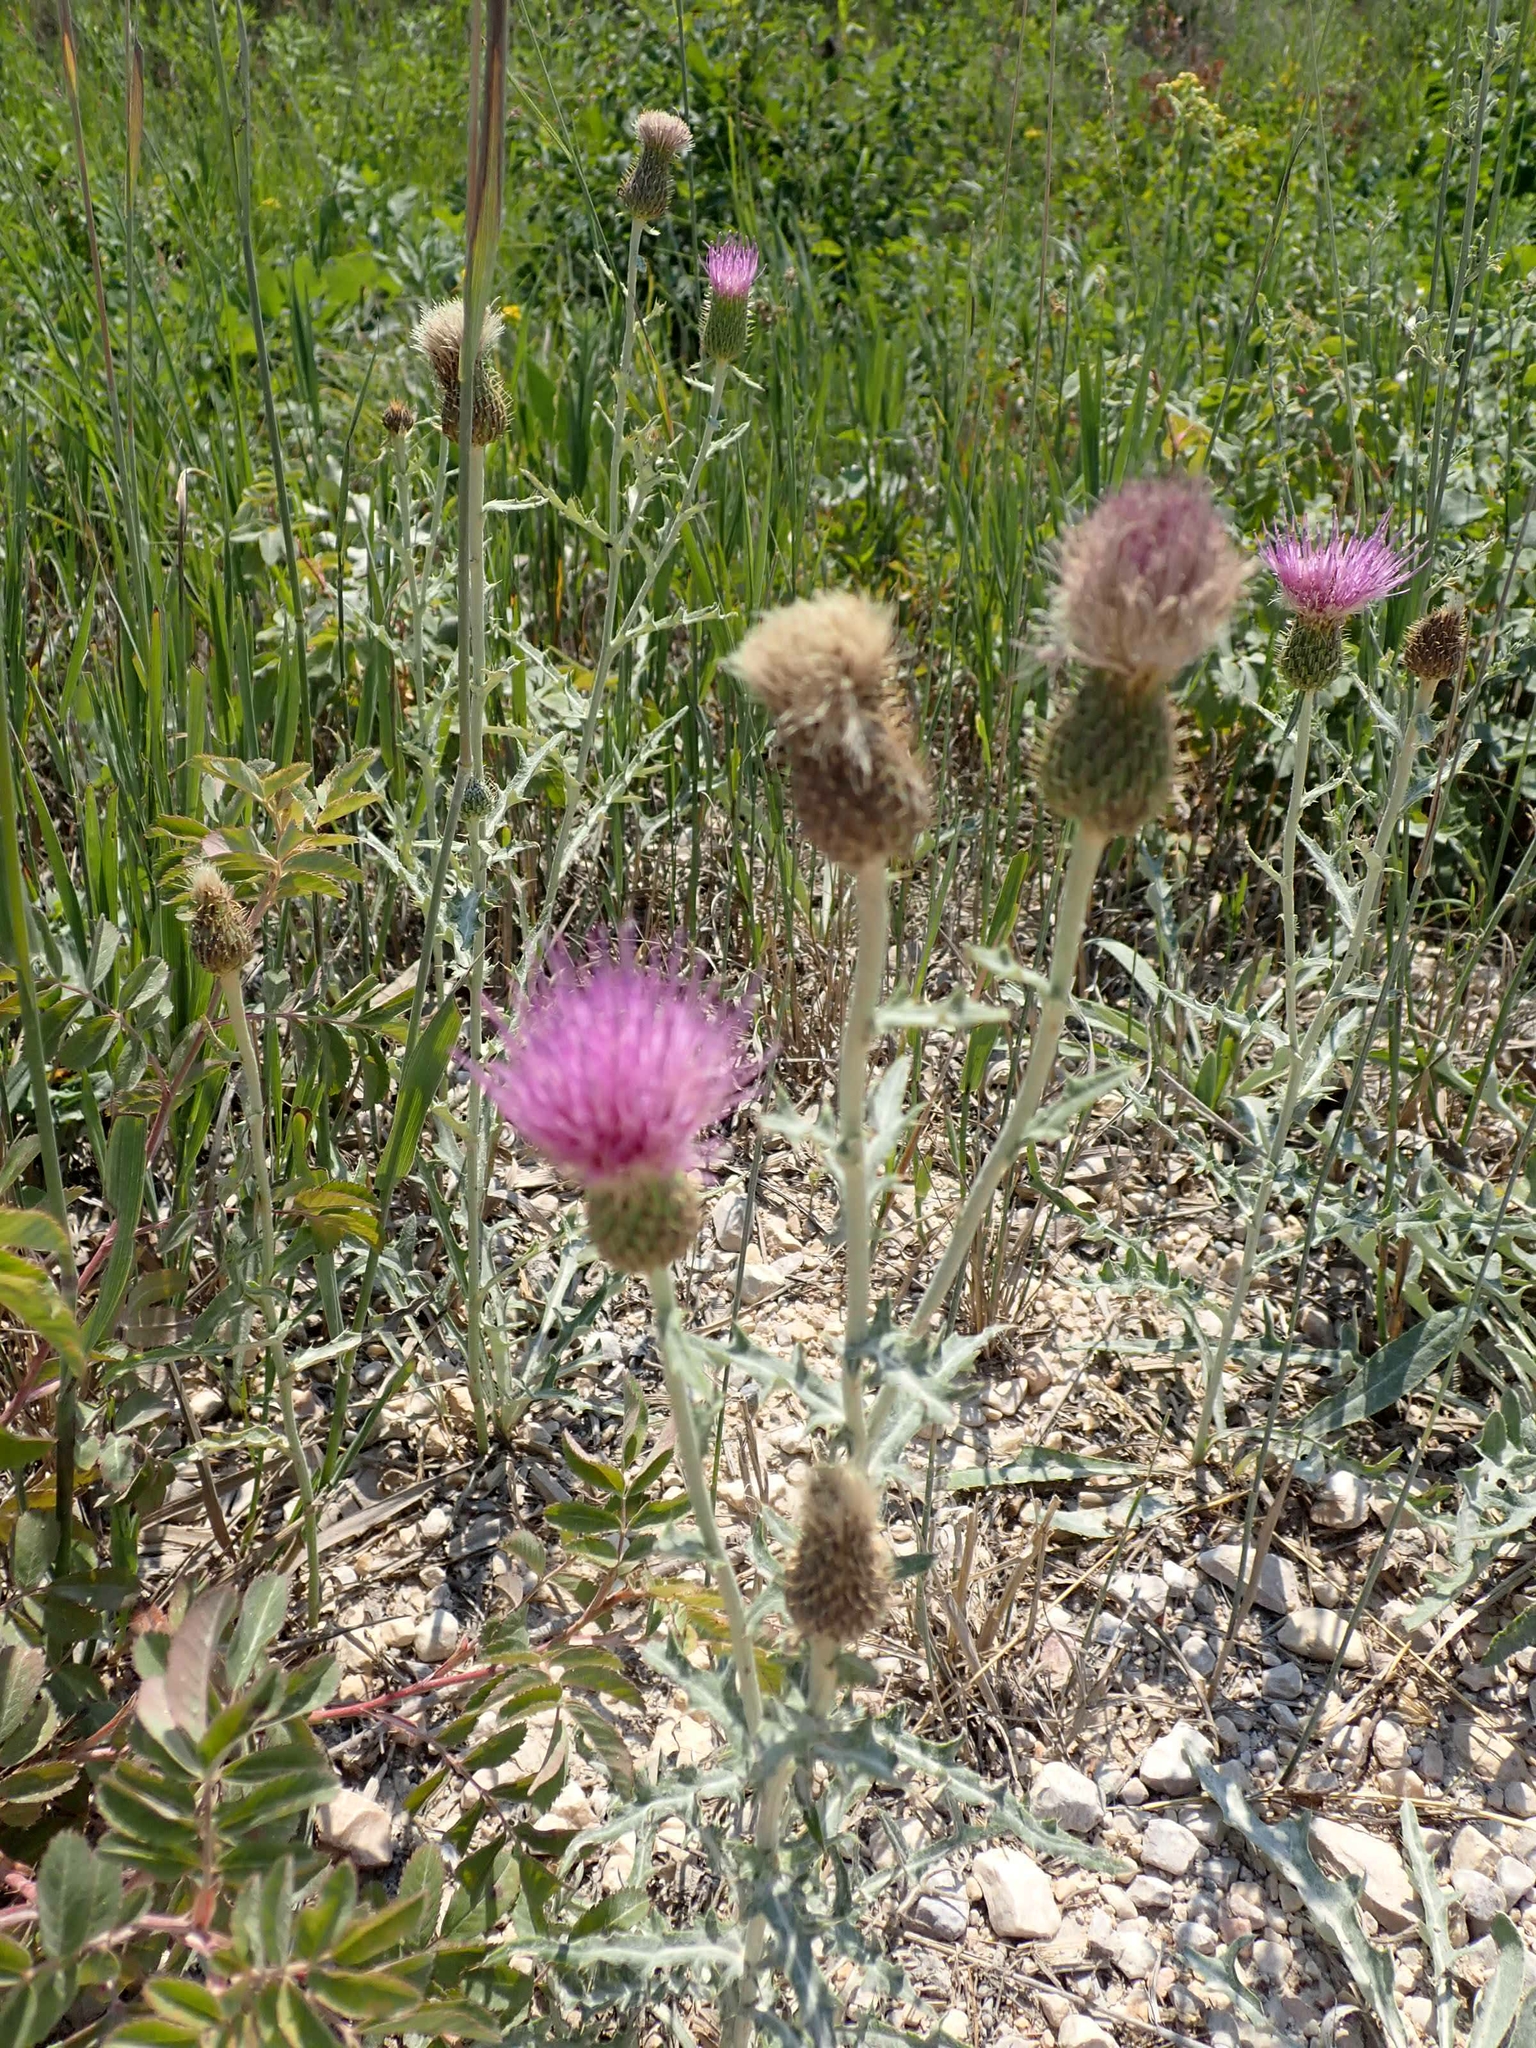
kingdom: Plantae
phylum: Tracheophyta
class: Magnoliopsida
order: Asterales
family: Asteraceae
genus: Cirsium
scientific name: Cirsium flodmanii
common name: Flodman's thistle
